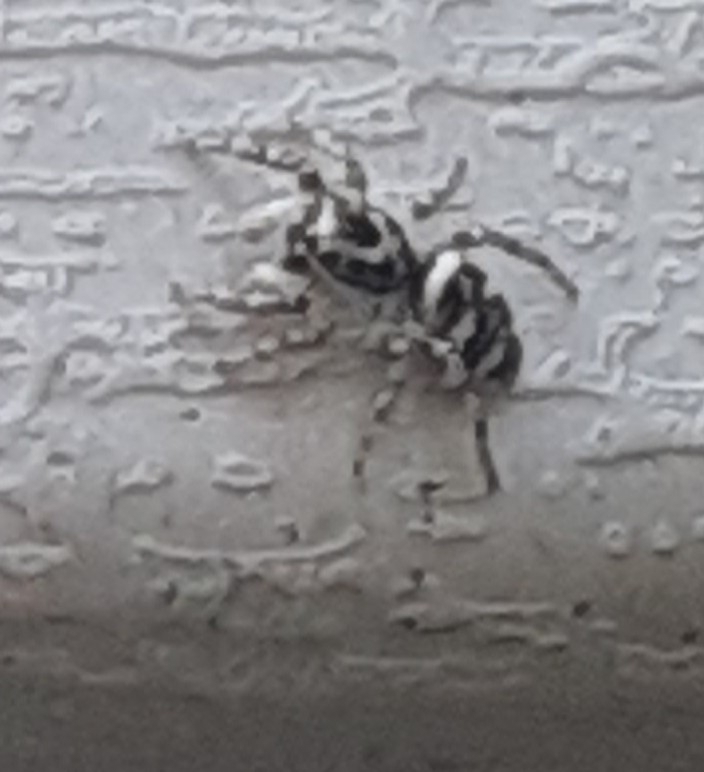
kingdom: Animalia
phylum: Arthropoda
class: Arachnida
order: Araneae
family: Salticidae
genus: Salticus
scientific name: Salticus scenicus
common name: Zebra jumper
